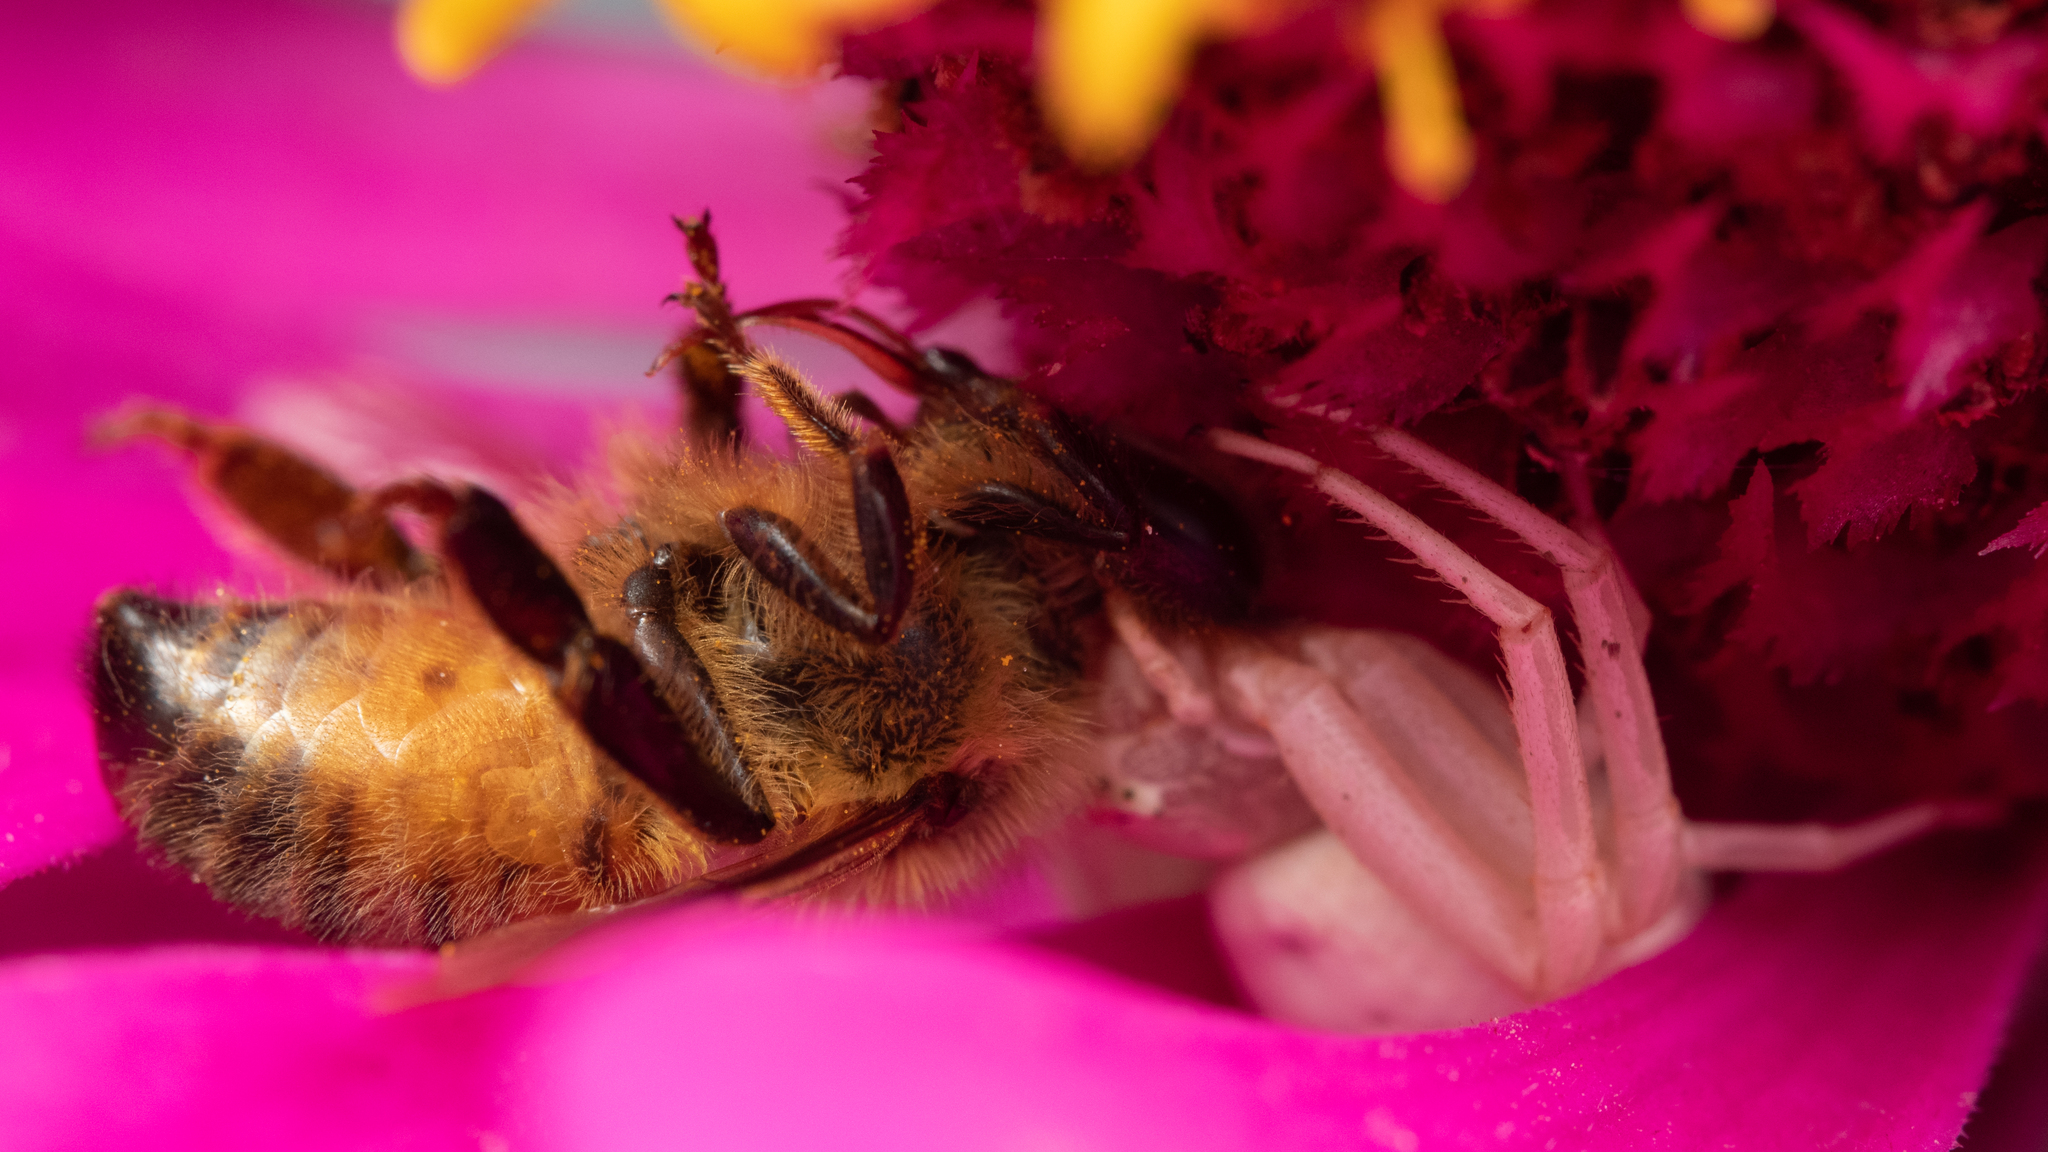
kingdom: Animalia
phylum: Arthropoda
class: Insecta
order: Hymenoptera
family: Apidae
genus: Apis
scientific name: Apis mellifera
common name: Honey bee
